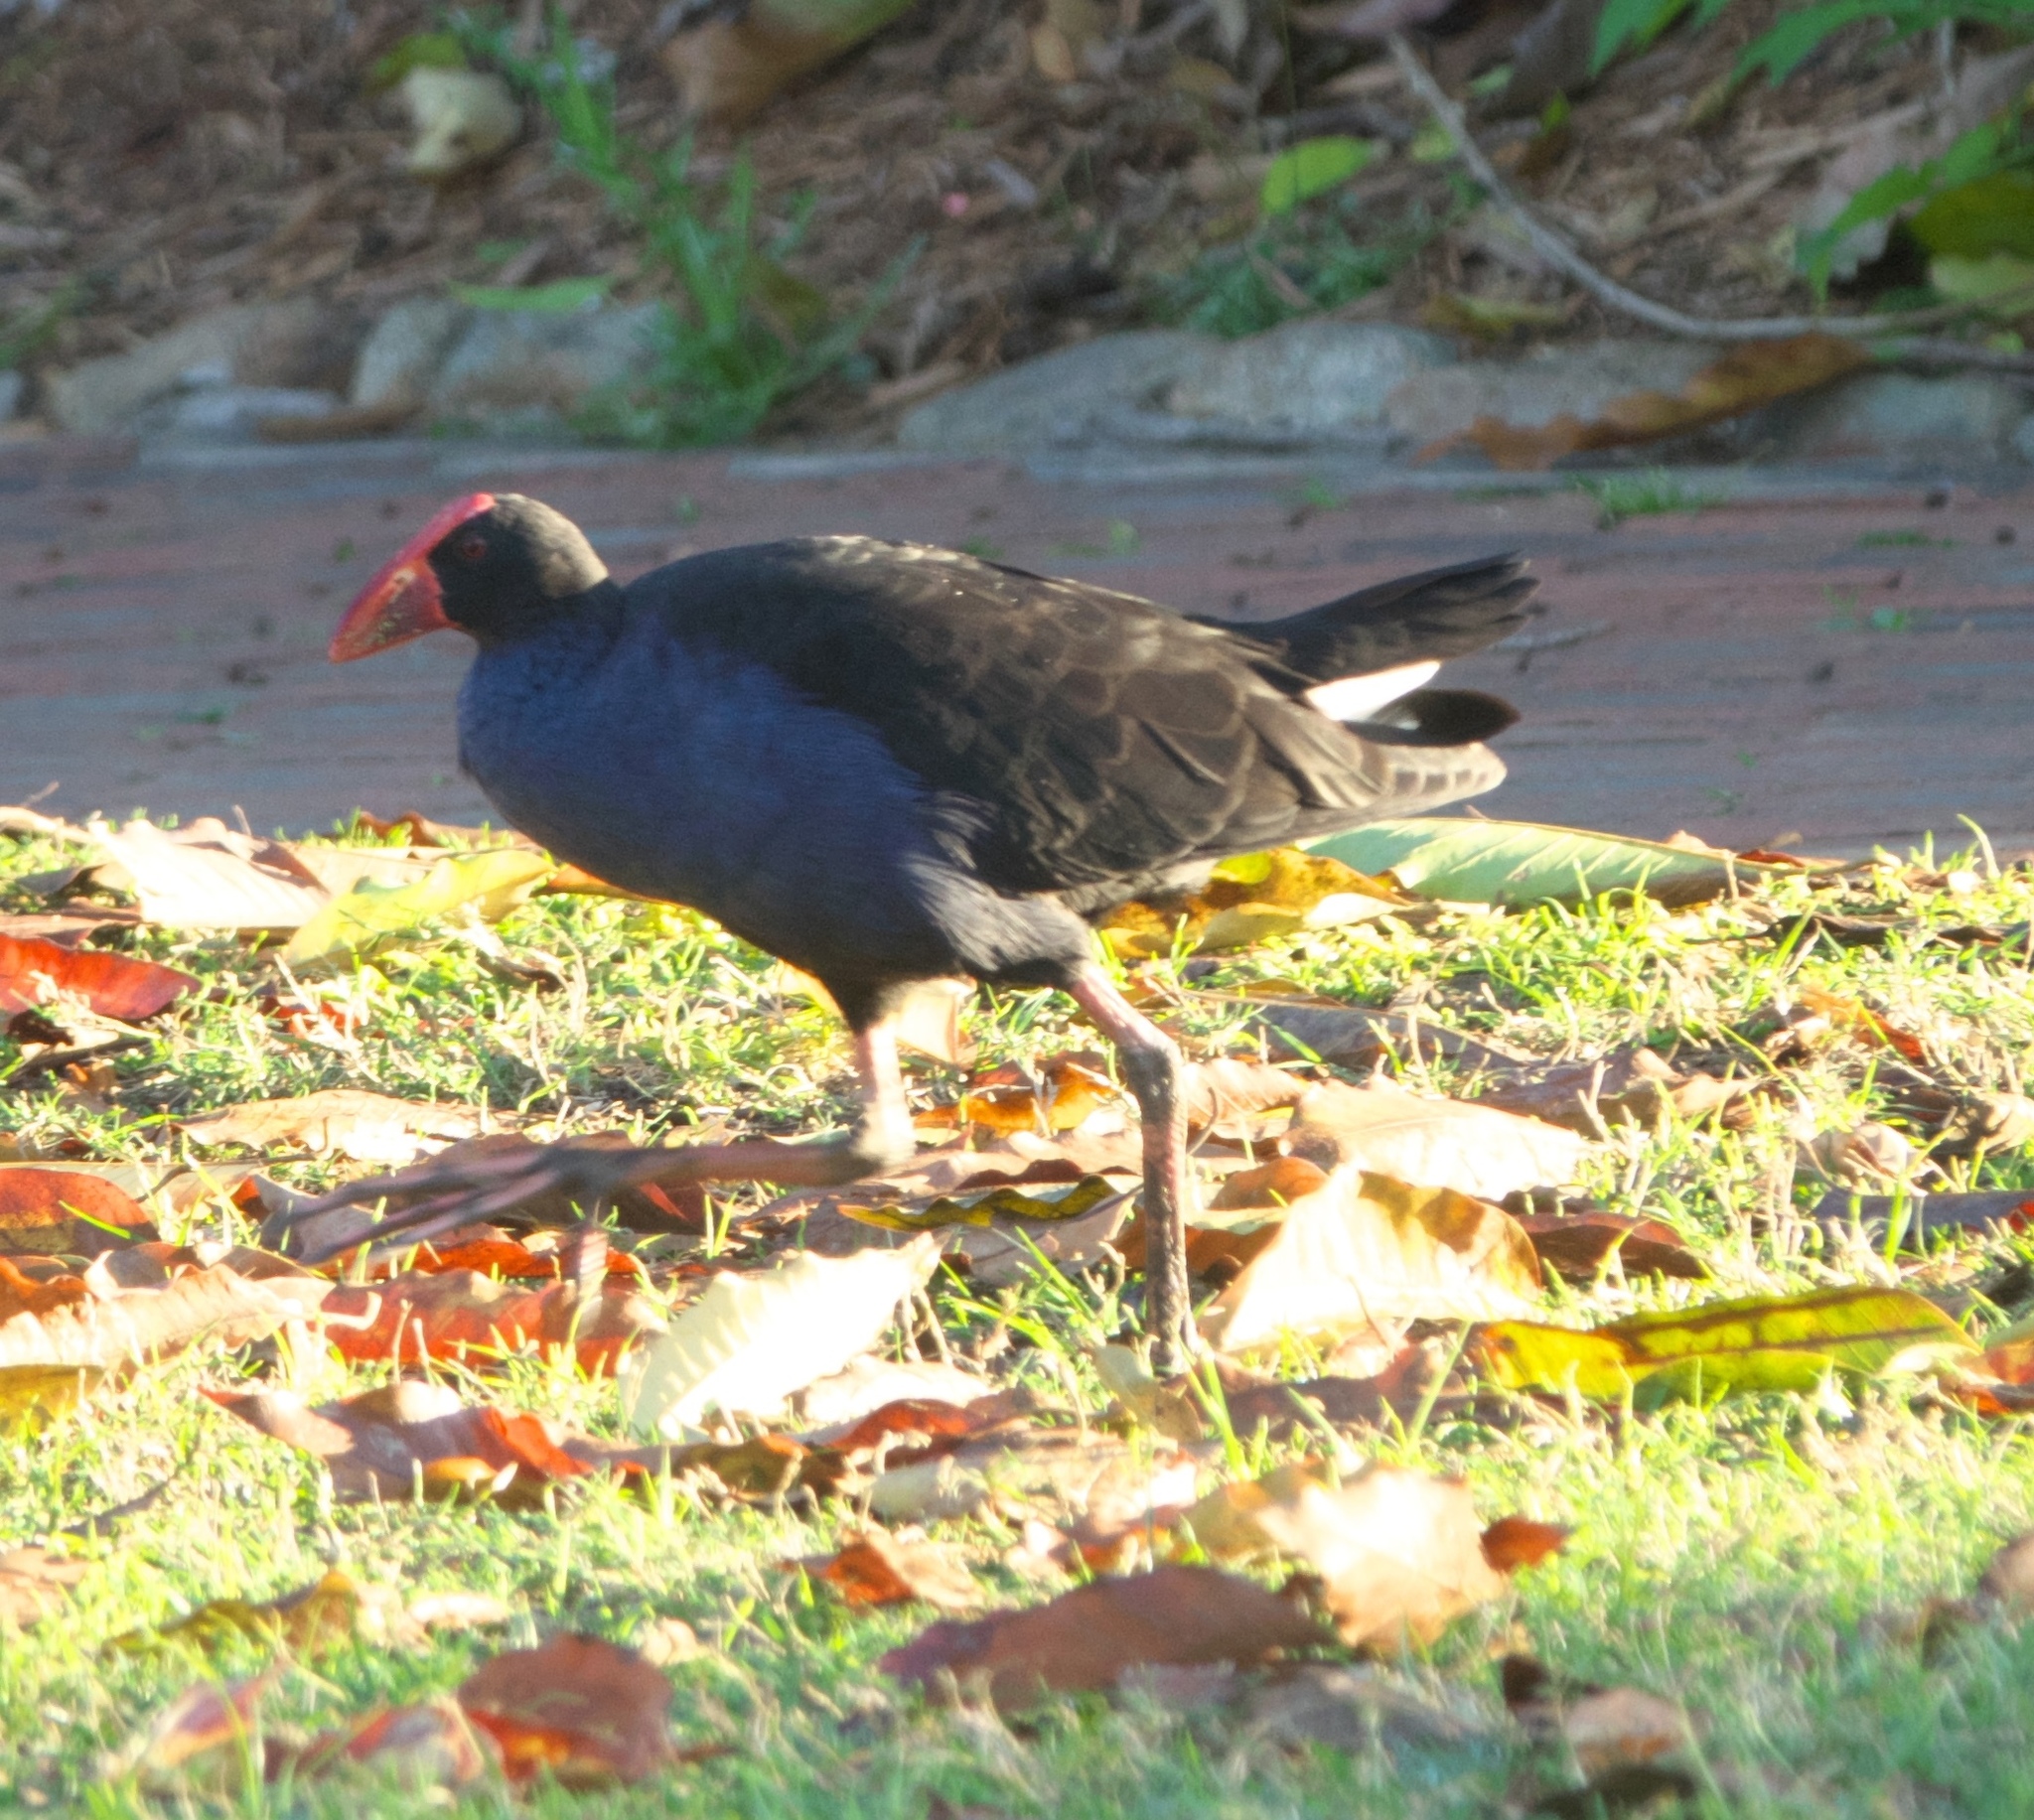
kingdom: Animalia
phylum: Chordata
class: Aves
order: Gruiformes
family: Rallidae
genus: Porphyrio
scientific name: Porphyrio melanotus
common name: Australasian swamphen
